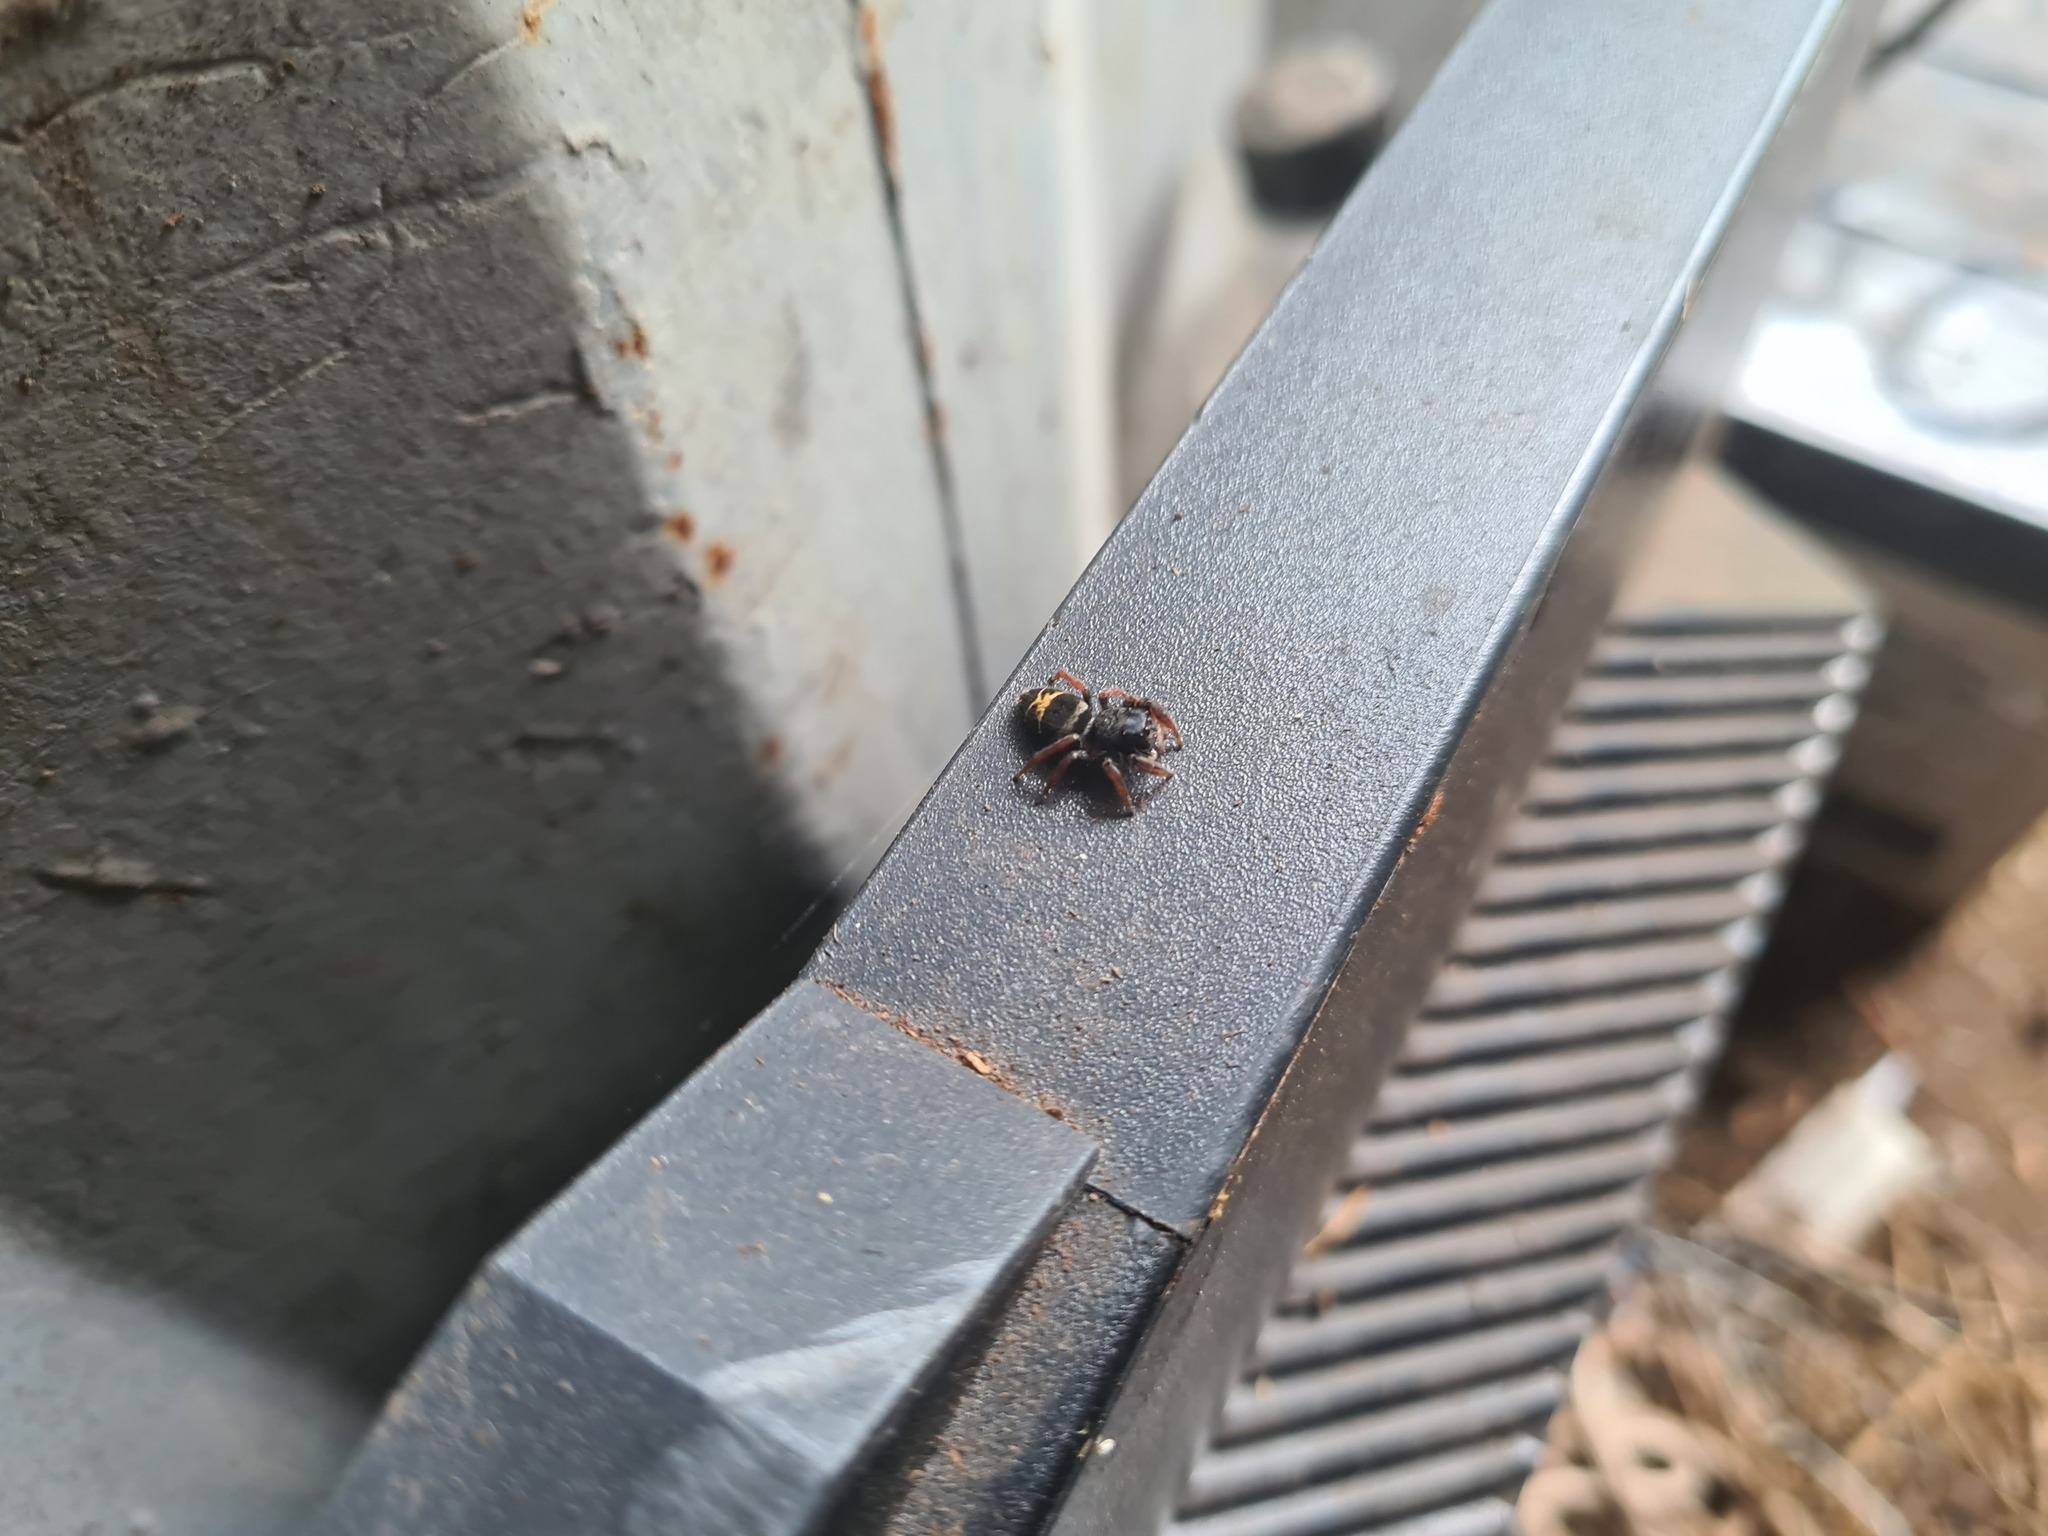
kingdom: Animalia
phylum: Arthropoda
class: Arachnida
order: Araneae
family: Salticidae
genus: Apricia
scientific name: Apricia jovialis
